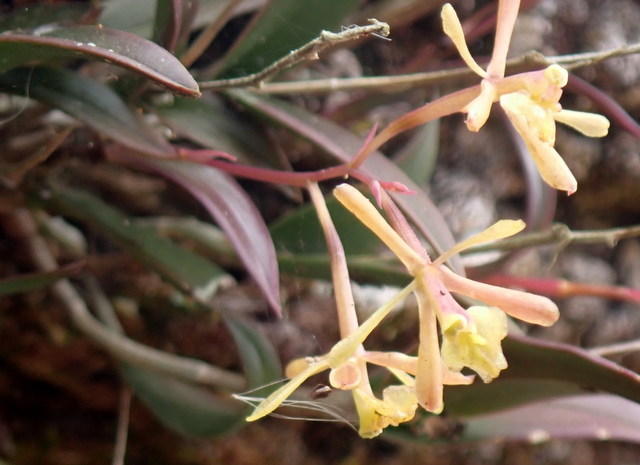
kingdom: Plantae
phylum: Tracheophyta
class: Liliopsida
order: Asparagales
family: Orchidaceae
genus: Epidendrum
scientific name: Epidendrum conopseum
